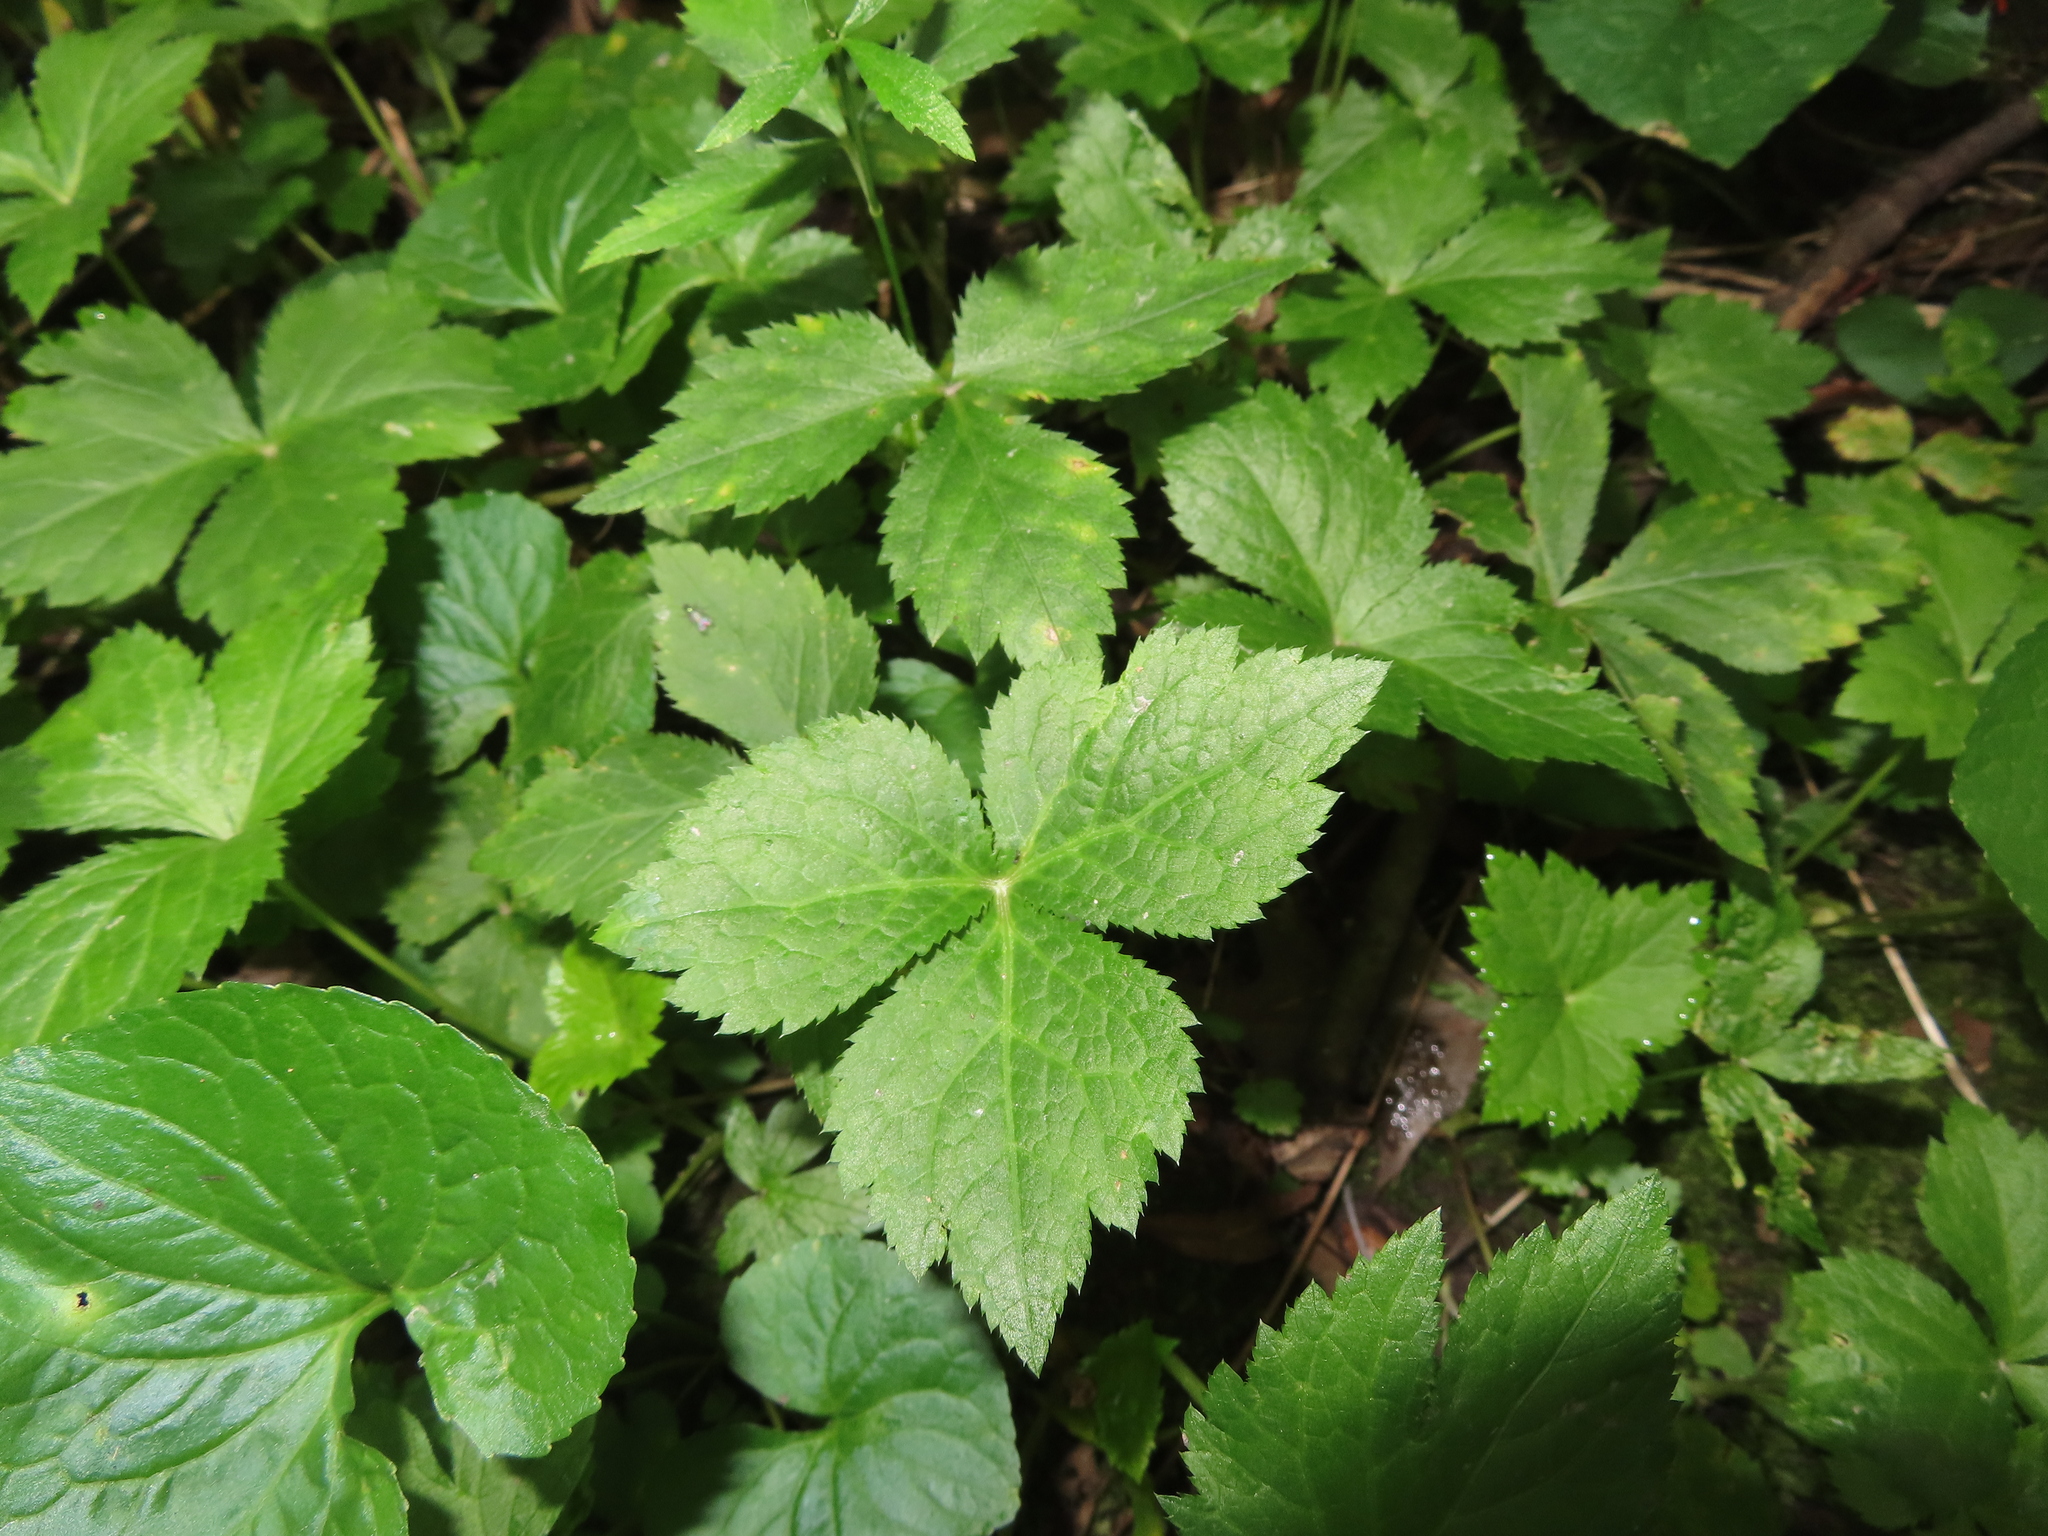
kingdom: Plantae
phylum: Tracheophyta
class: Magnoliopsida
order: Apiales
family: Apiaceae
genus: Cryptotaenia
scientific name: Cryptotaenia canadensis
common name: Honewort
